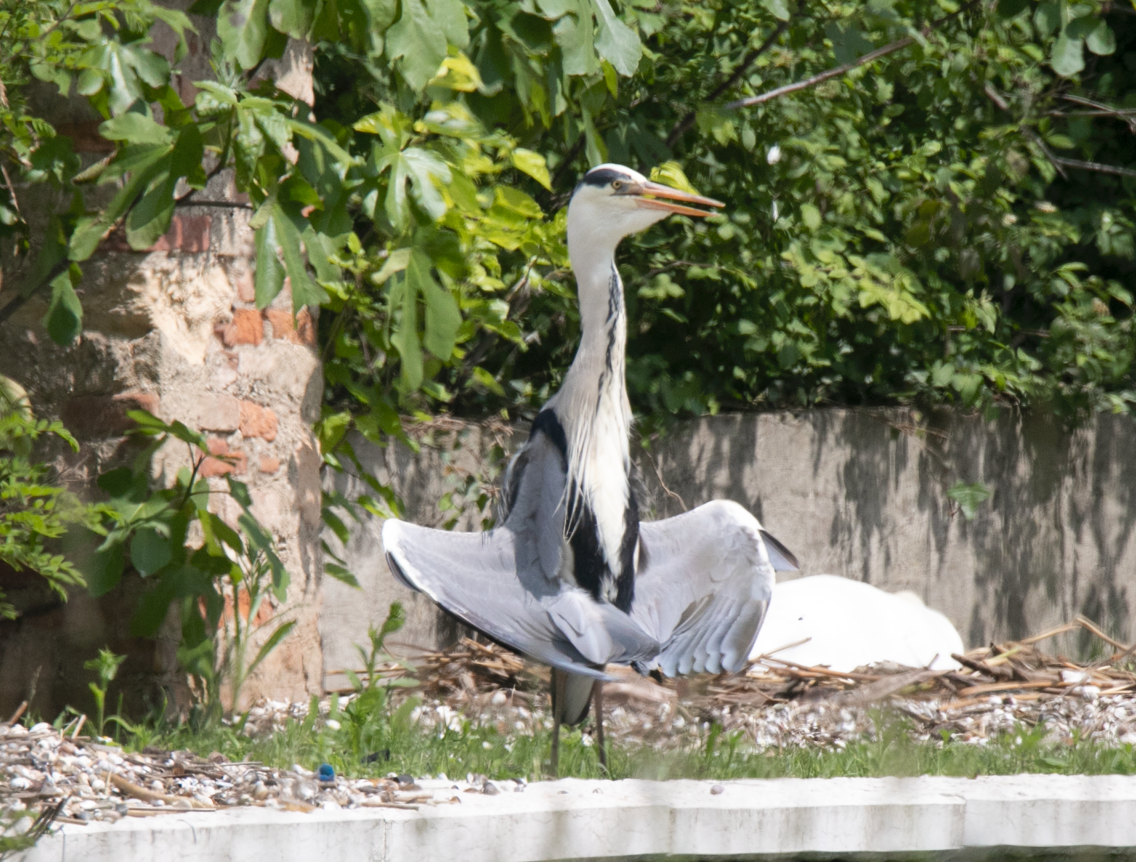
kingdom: Animalia
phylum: Chordata
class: Aves
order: Pelecaniformes
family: Ardeidae
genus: Ardea
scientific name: Ardea cinerea
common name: Grey heron
